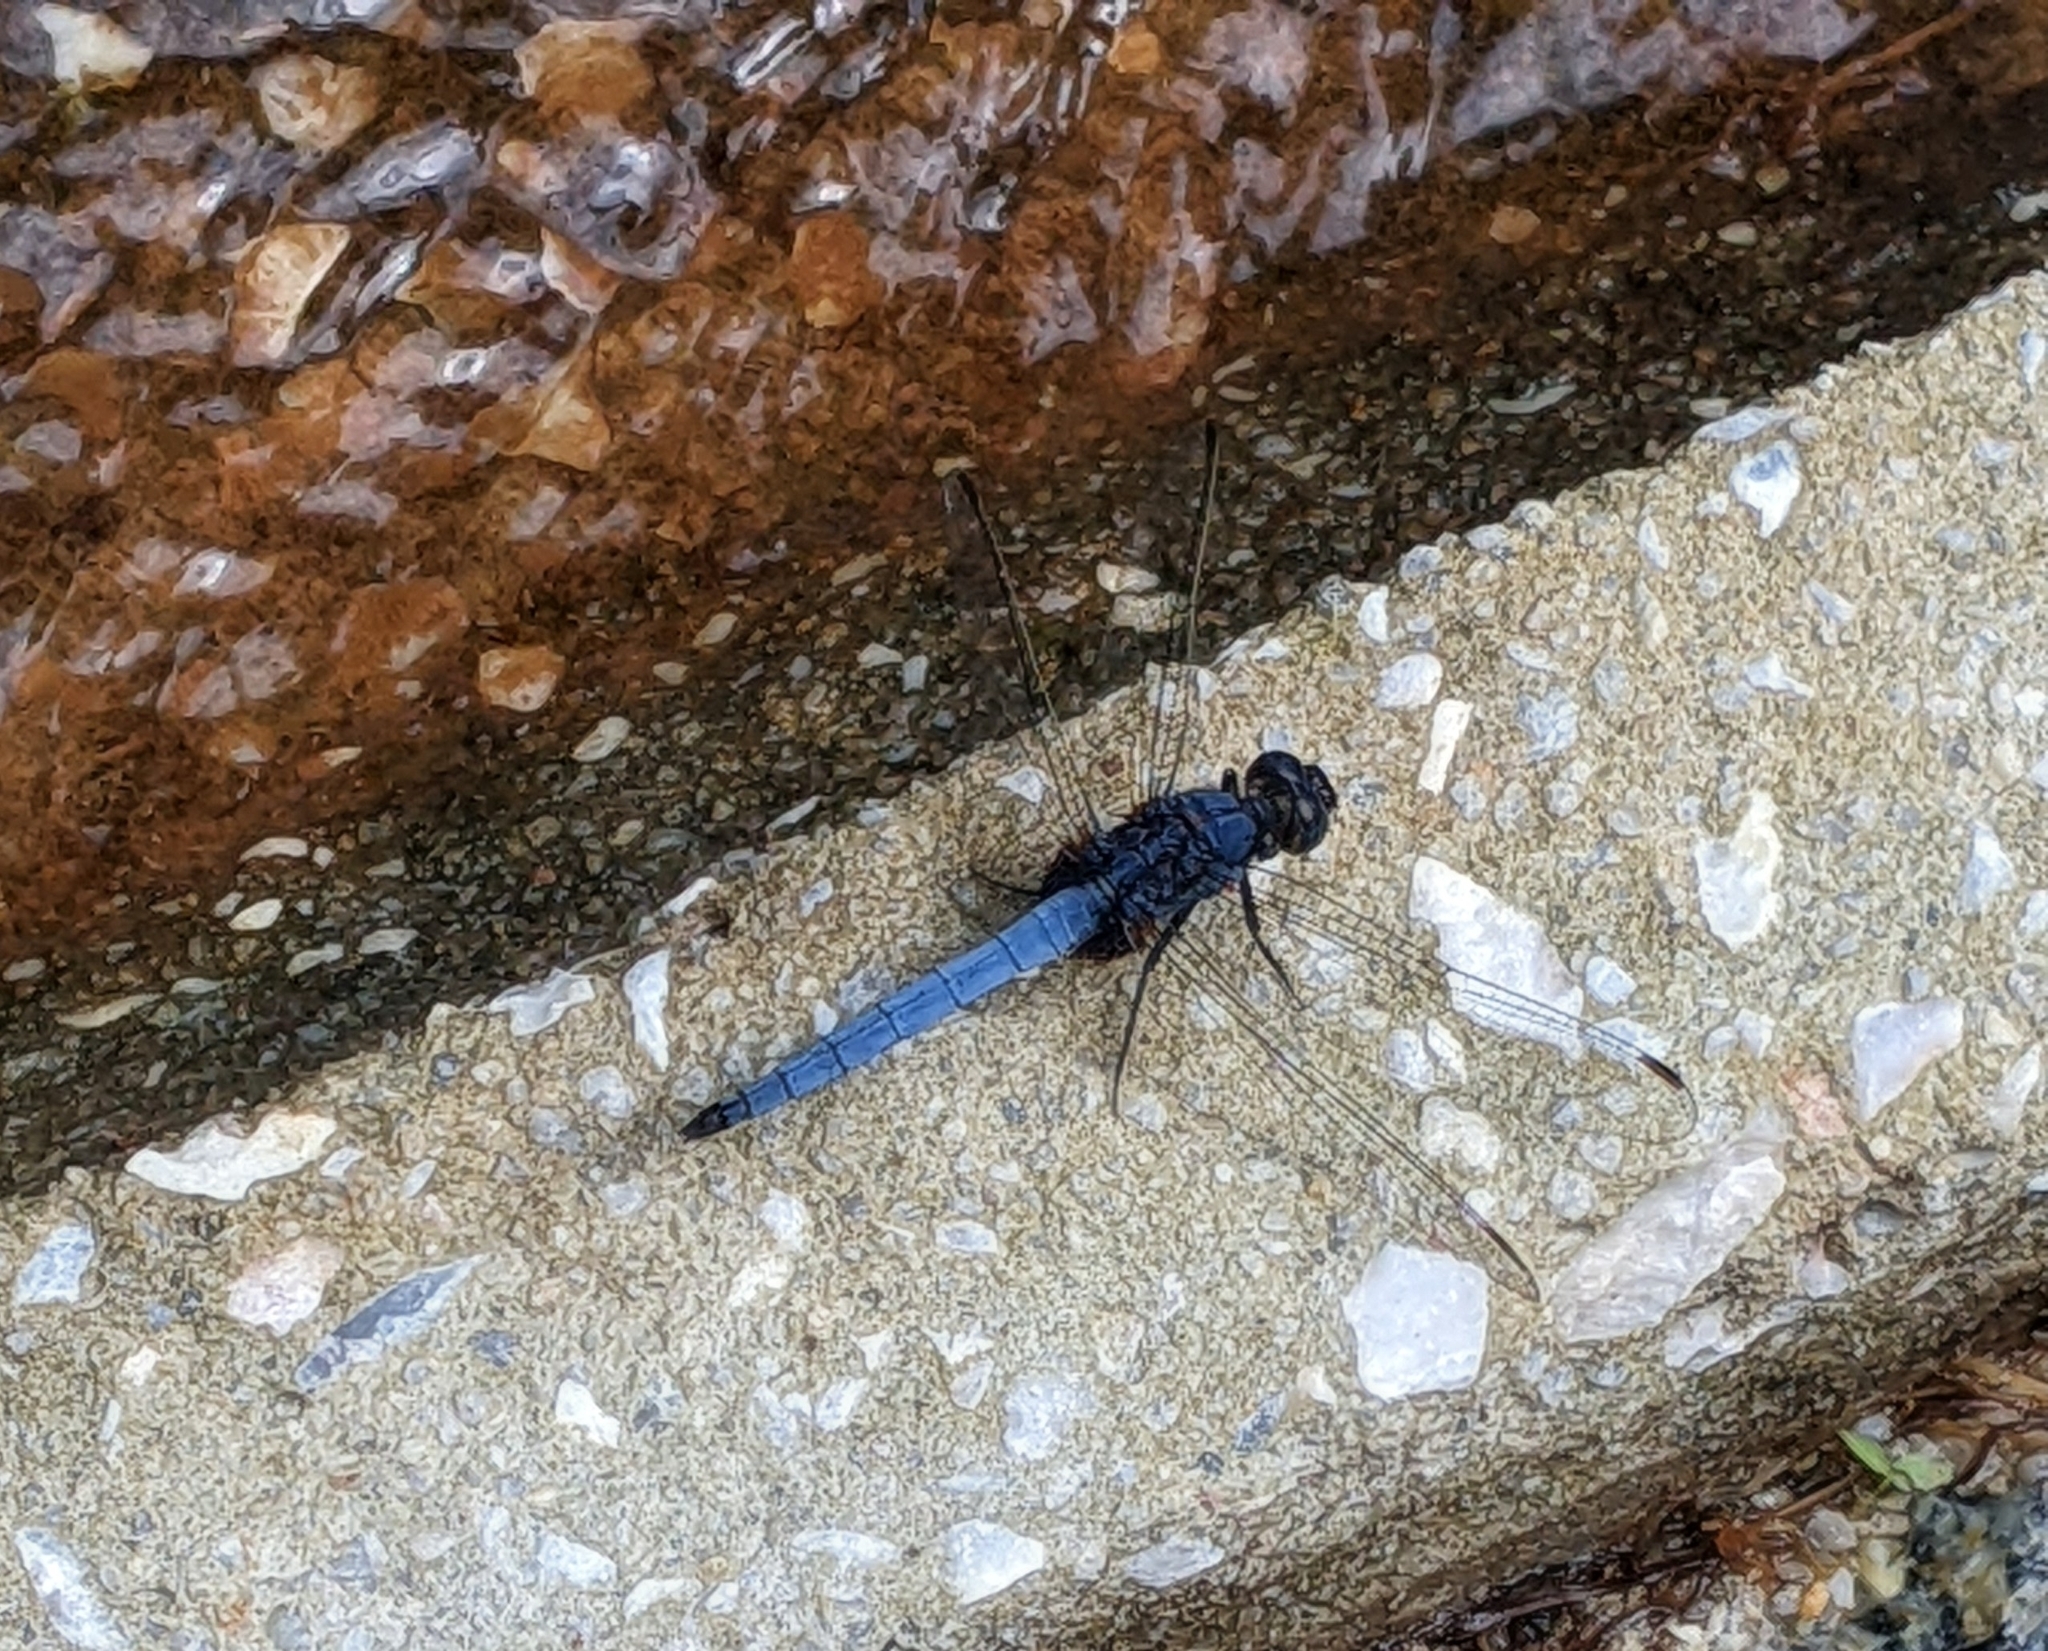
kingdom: Animalia
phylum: Arthropoda
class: Insecta
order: Odonata
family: Libellulidae
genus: Orthetrum
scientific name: Orthetrum glaucum
